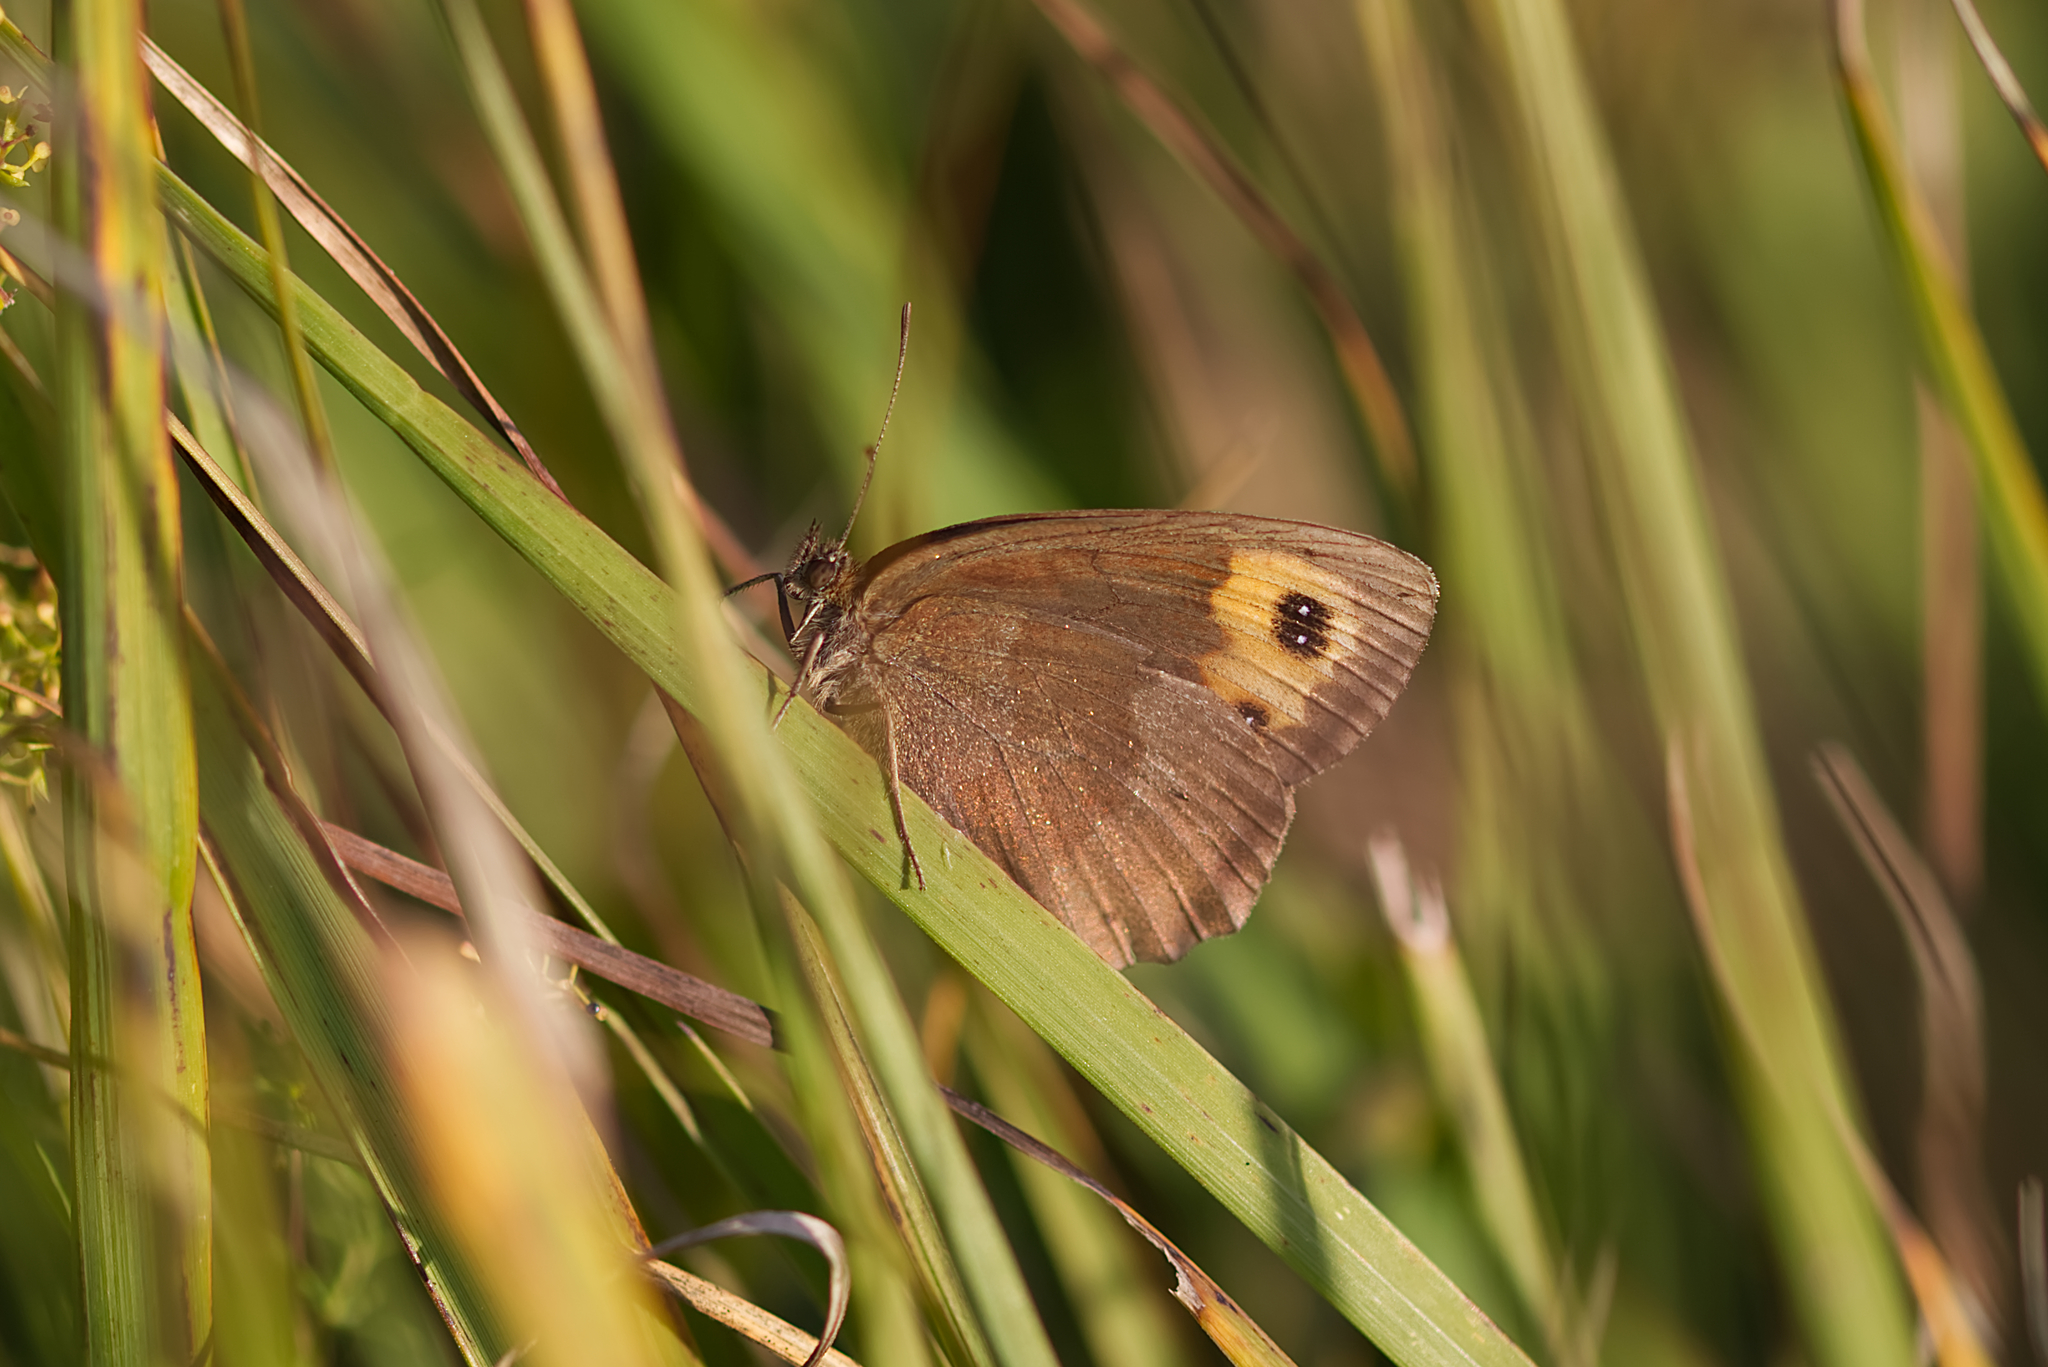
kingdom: Animalia
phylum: Arthropoda
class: Insecta
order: Lepidoptera
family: Nymphalidae
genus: Erebia
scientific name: Erebia aethiops
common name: Scotch argus
